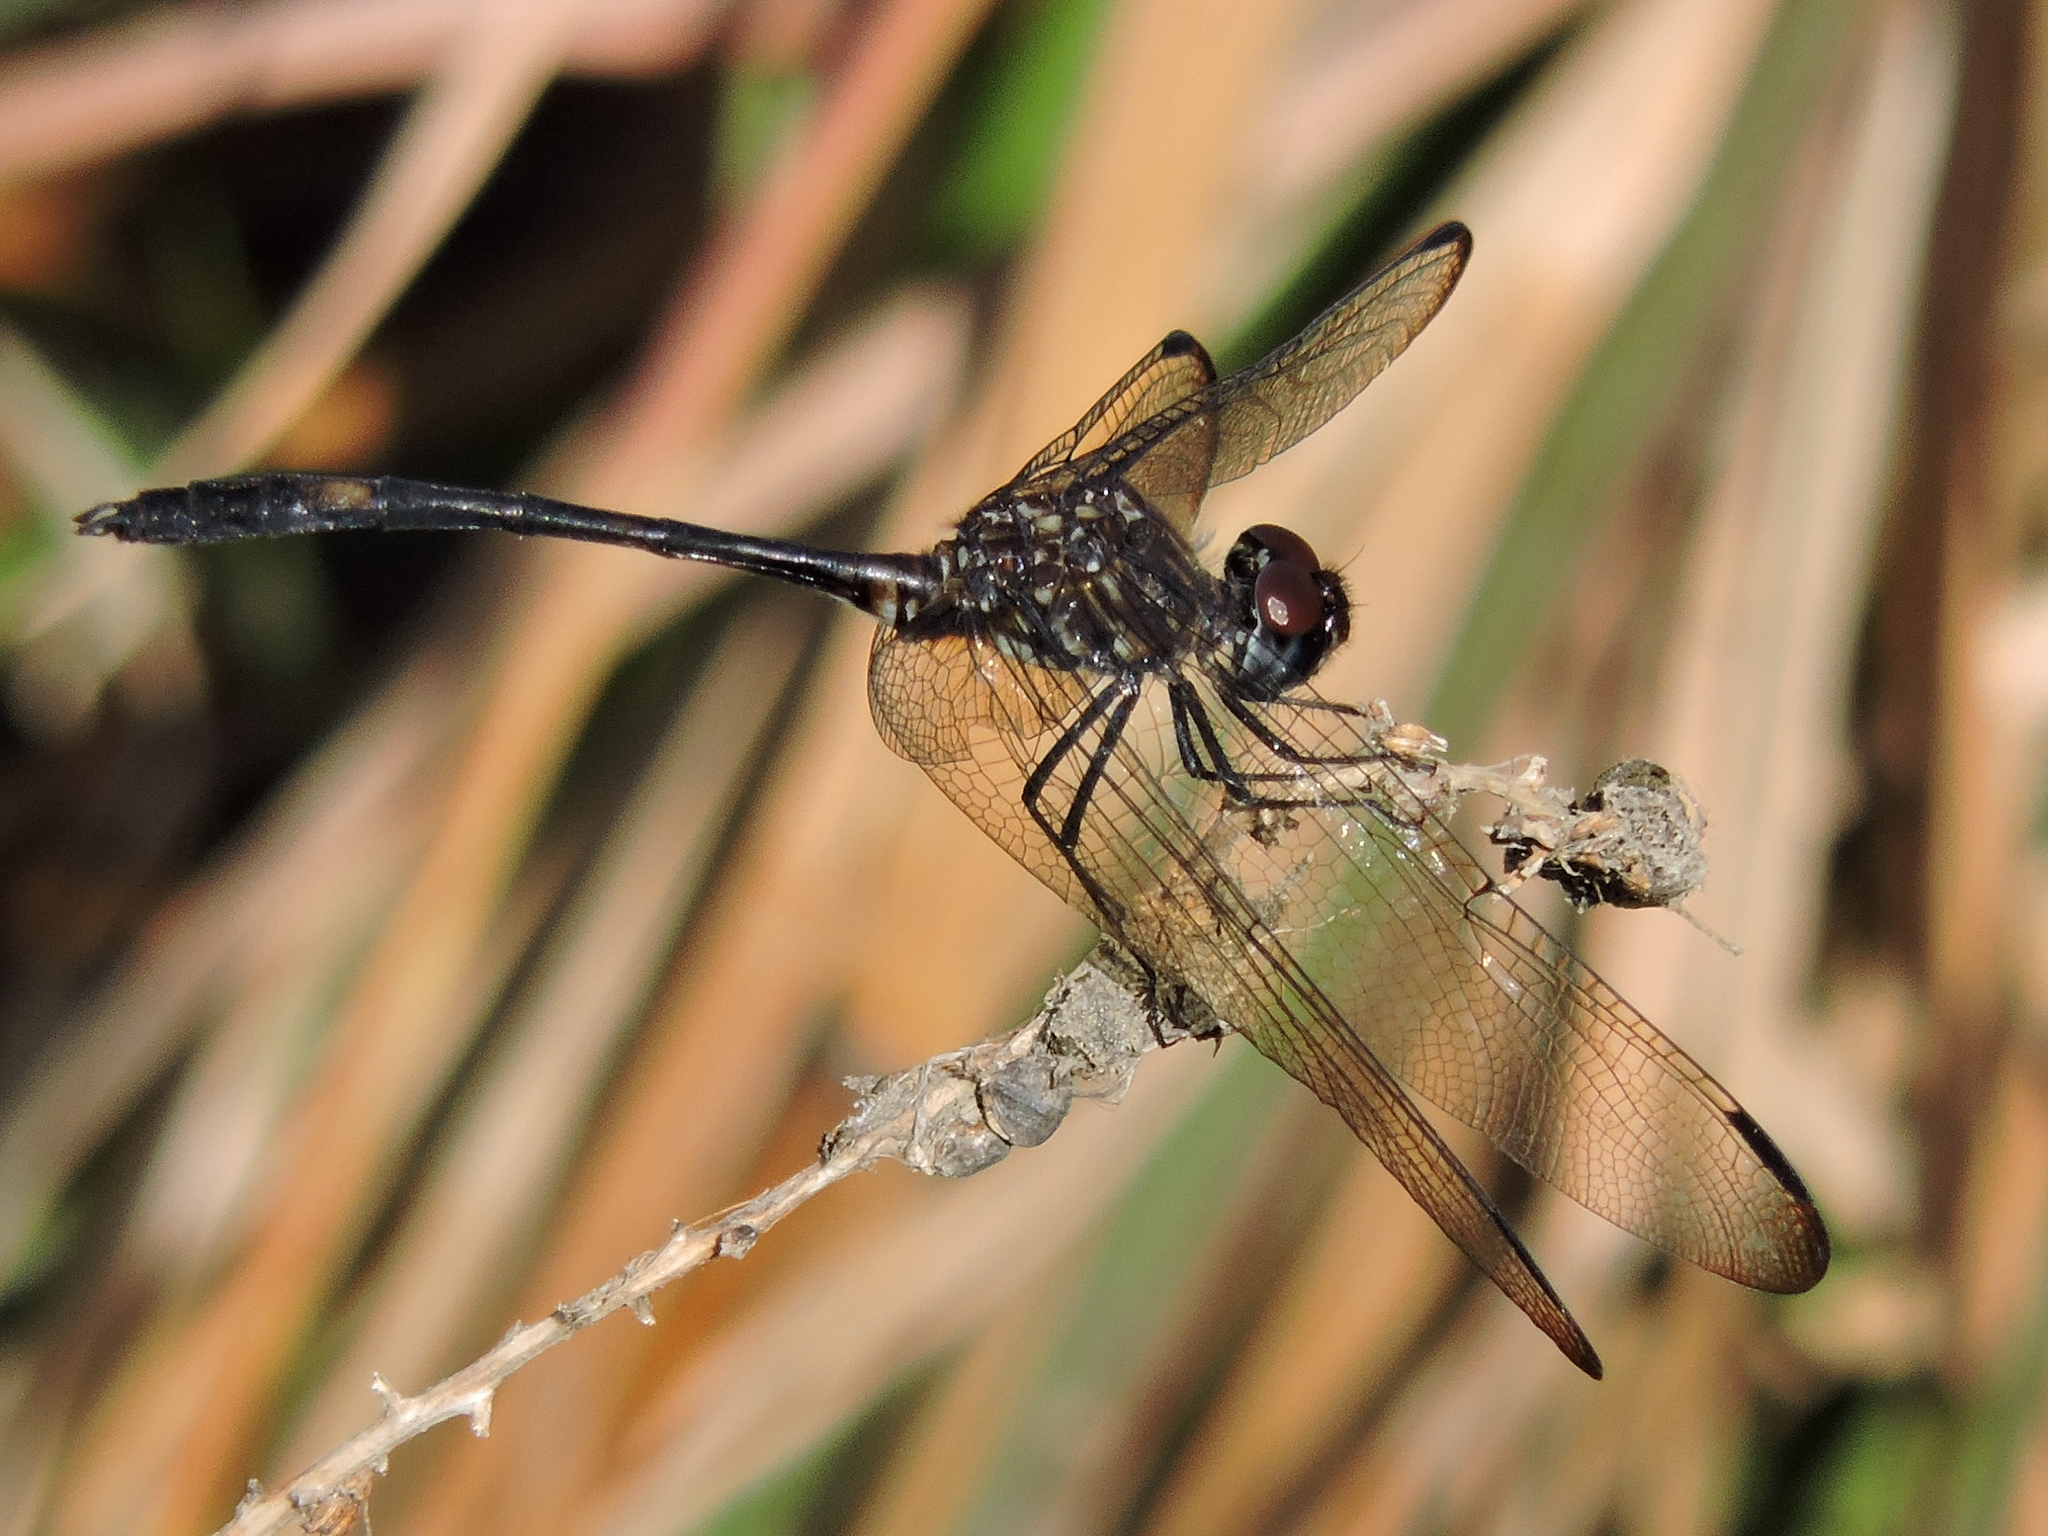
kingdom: Animalia
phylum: Arthropoda
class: Insecta
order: Odonata
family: Libellulidae
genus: Dythemis
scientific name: Dythemis velox
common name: Swift setwing
